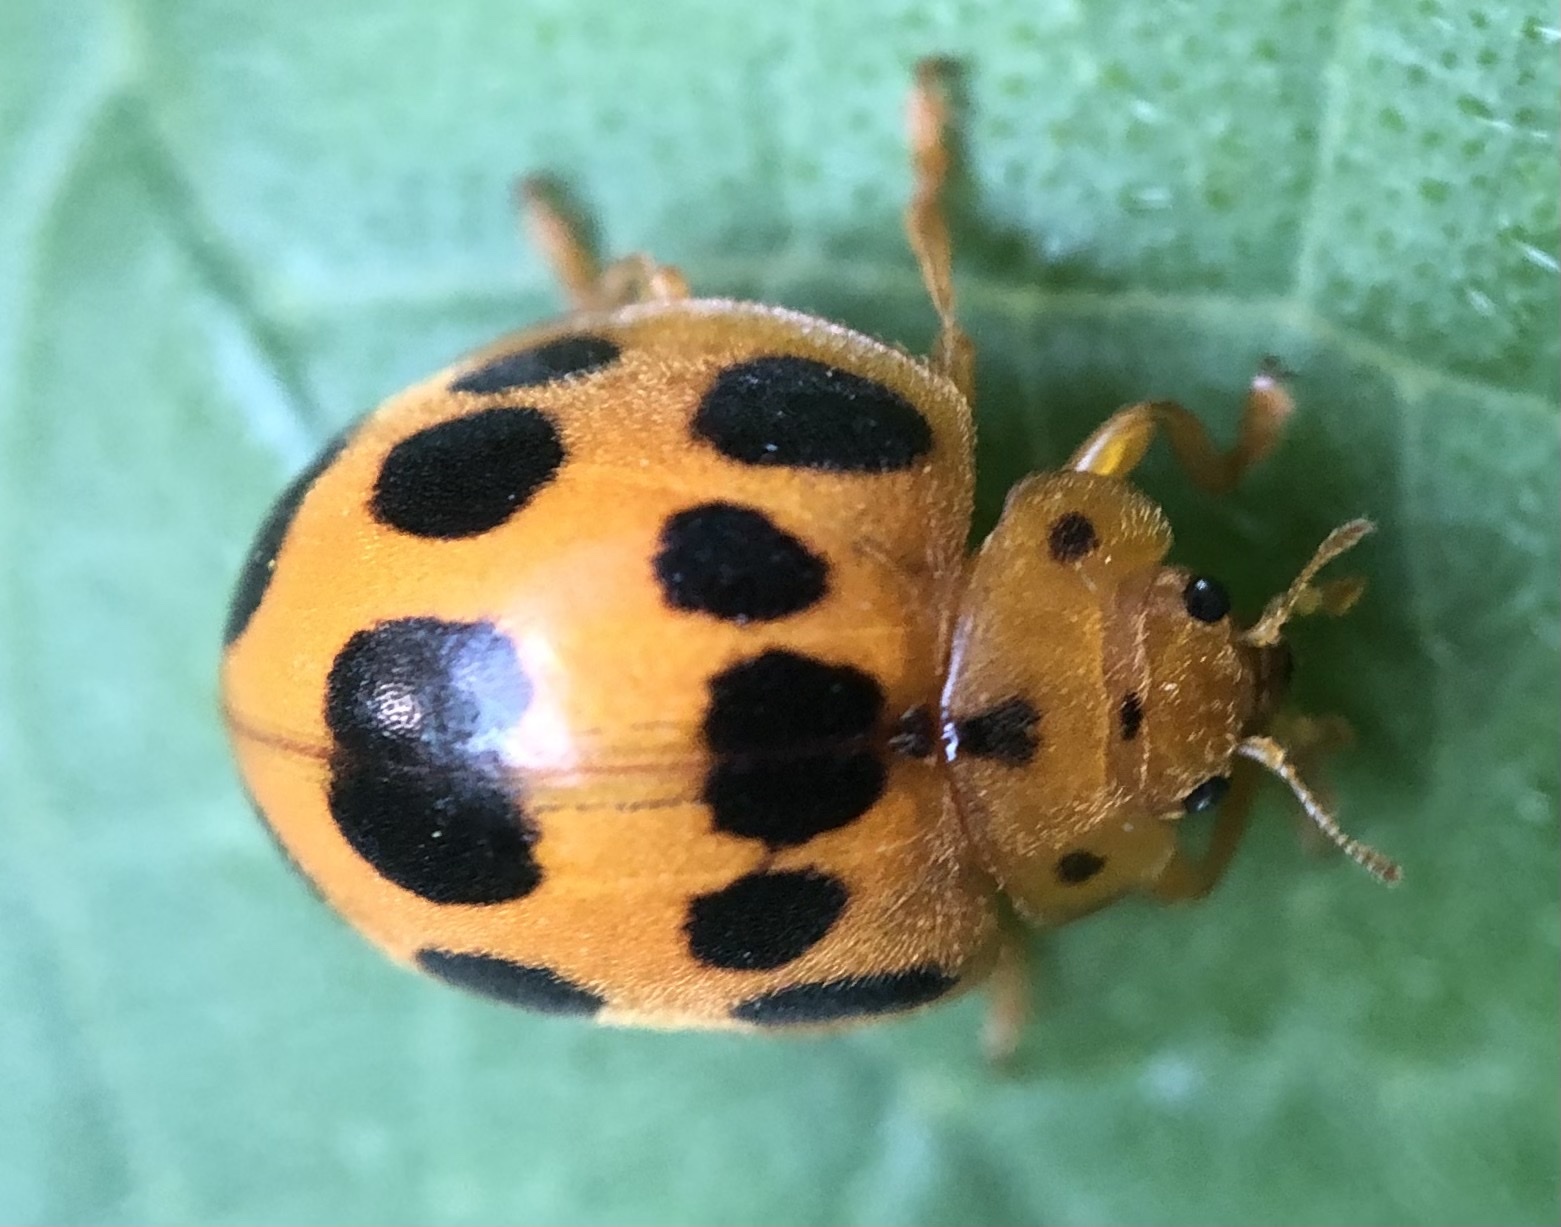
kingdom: Animalia
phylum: Arthropoda
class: Insecta
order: Coleoptera
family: Coccinellidae
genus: Epilachna
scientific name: Epilachna borealis
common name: Squash beetle
